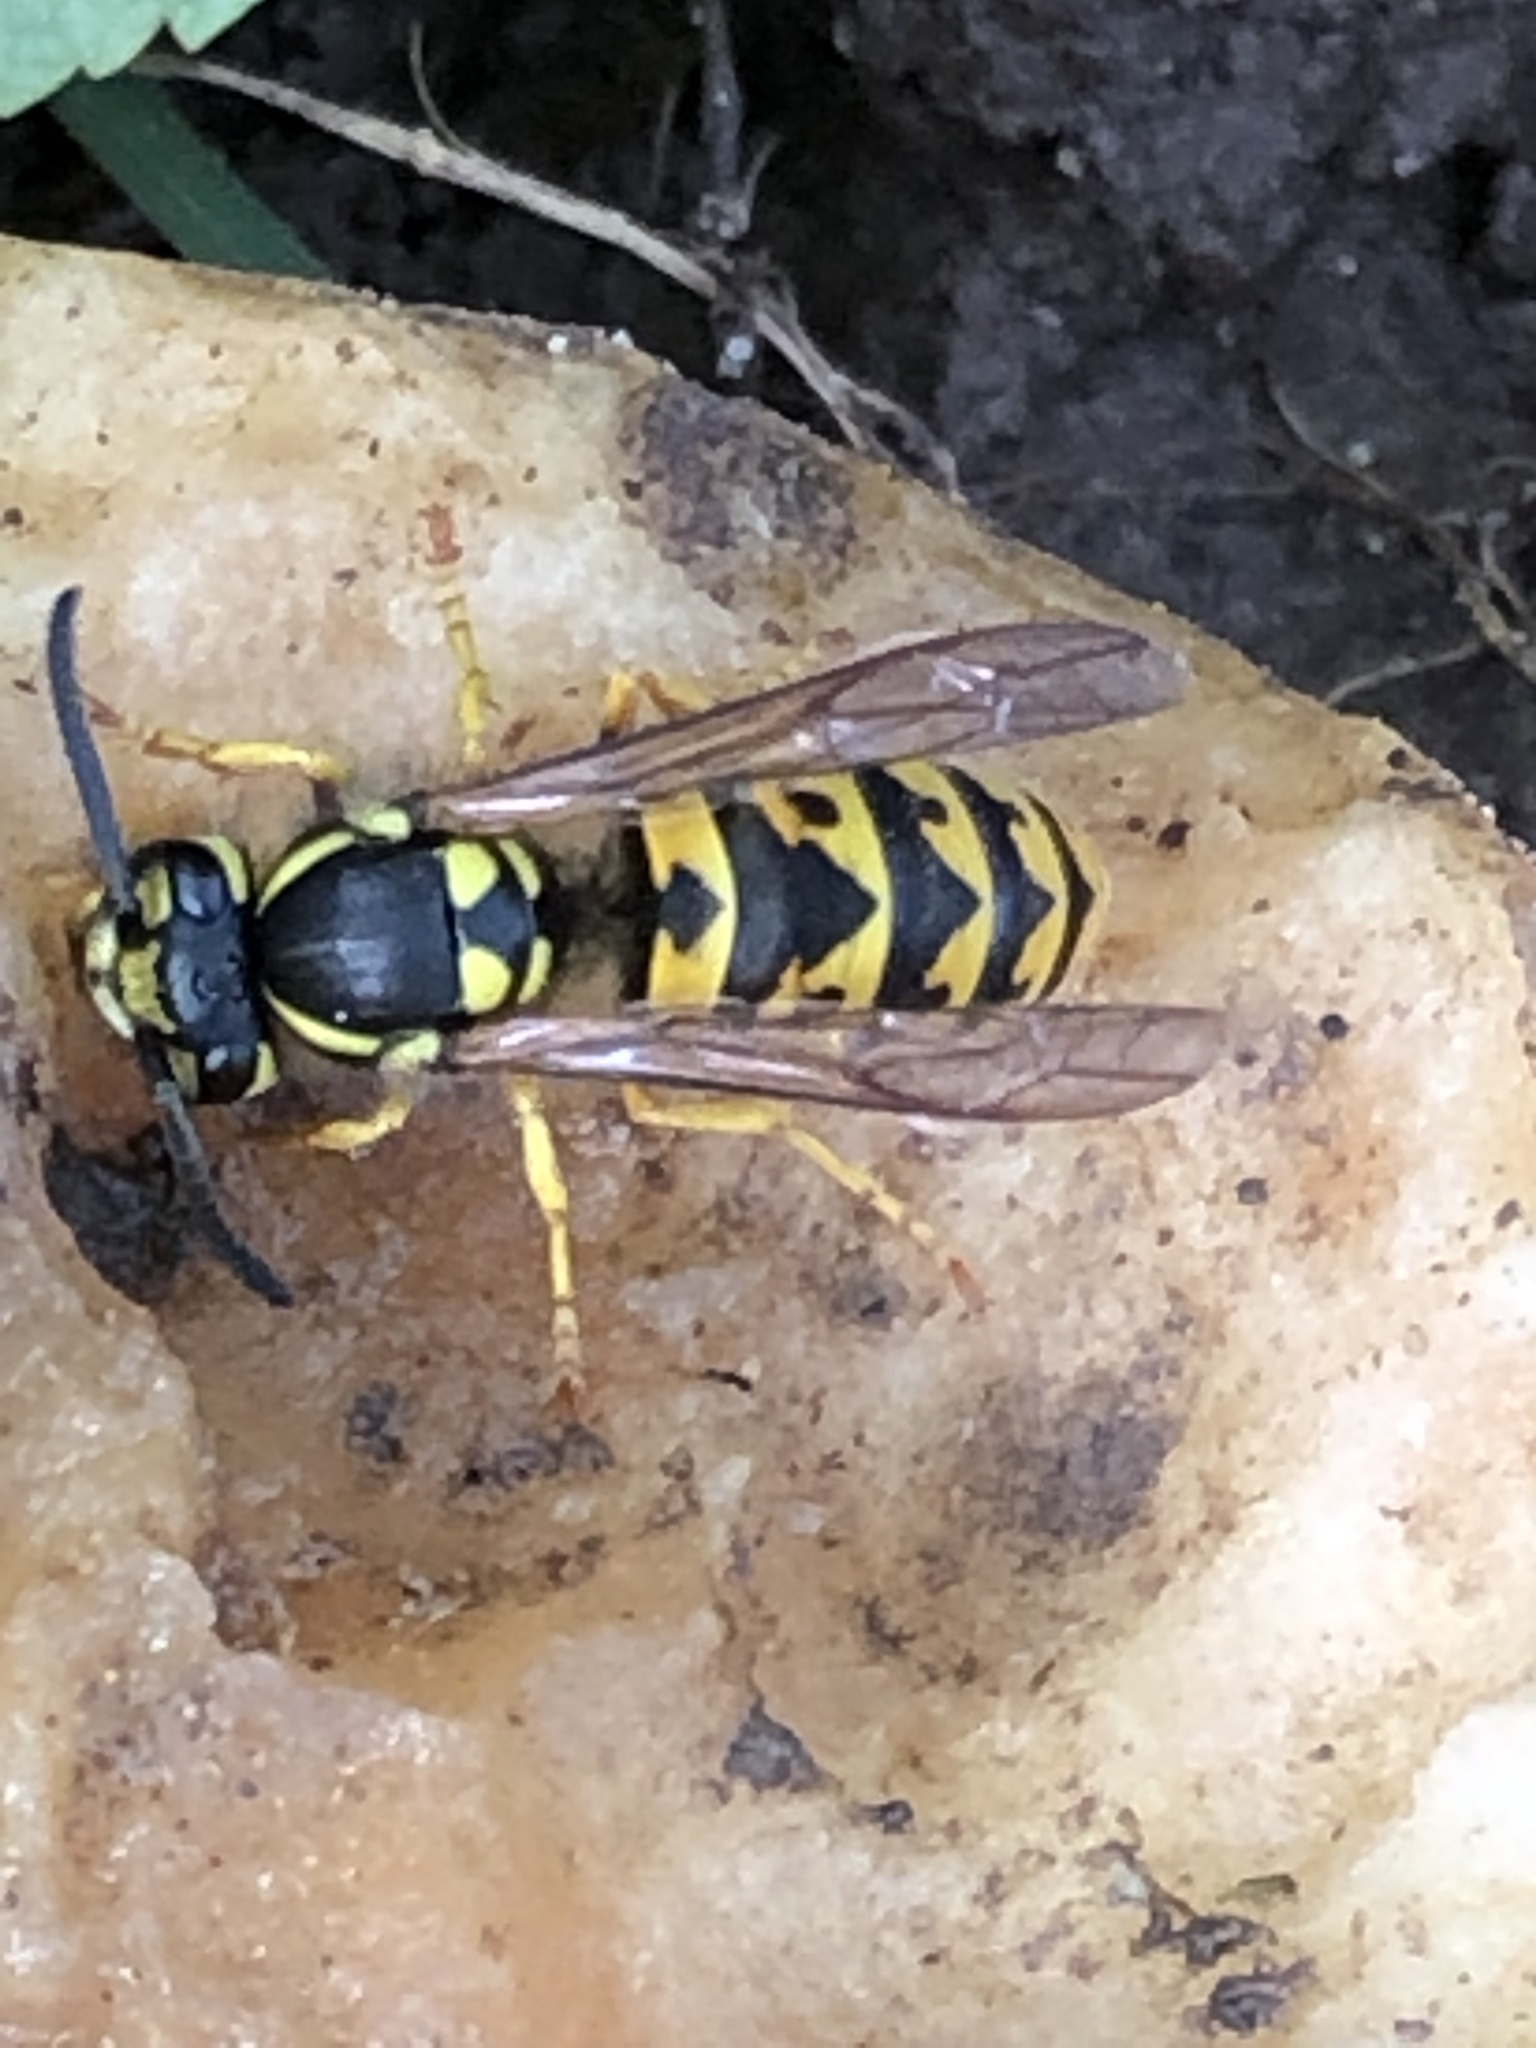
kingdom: Animalia
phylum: Arthropoda
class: Insecta
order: Hymenoptera
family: Vespidae
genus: Vespula
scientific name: Vespula germanica
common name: German wasp
